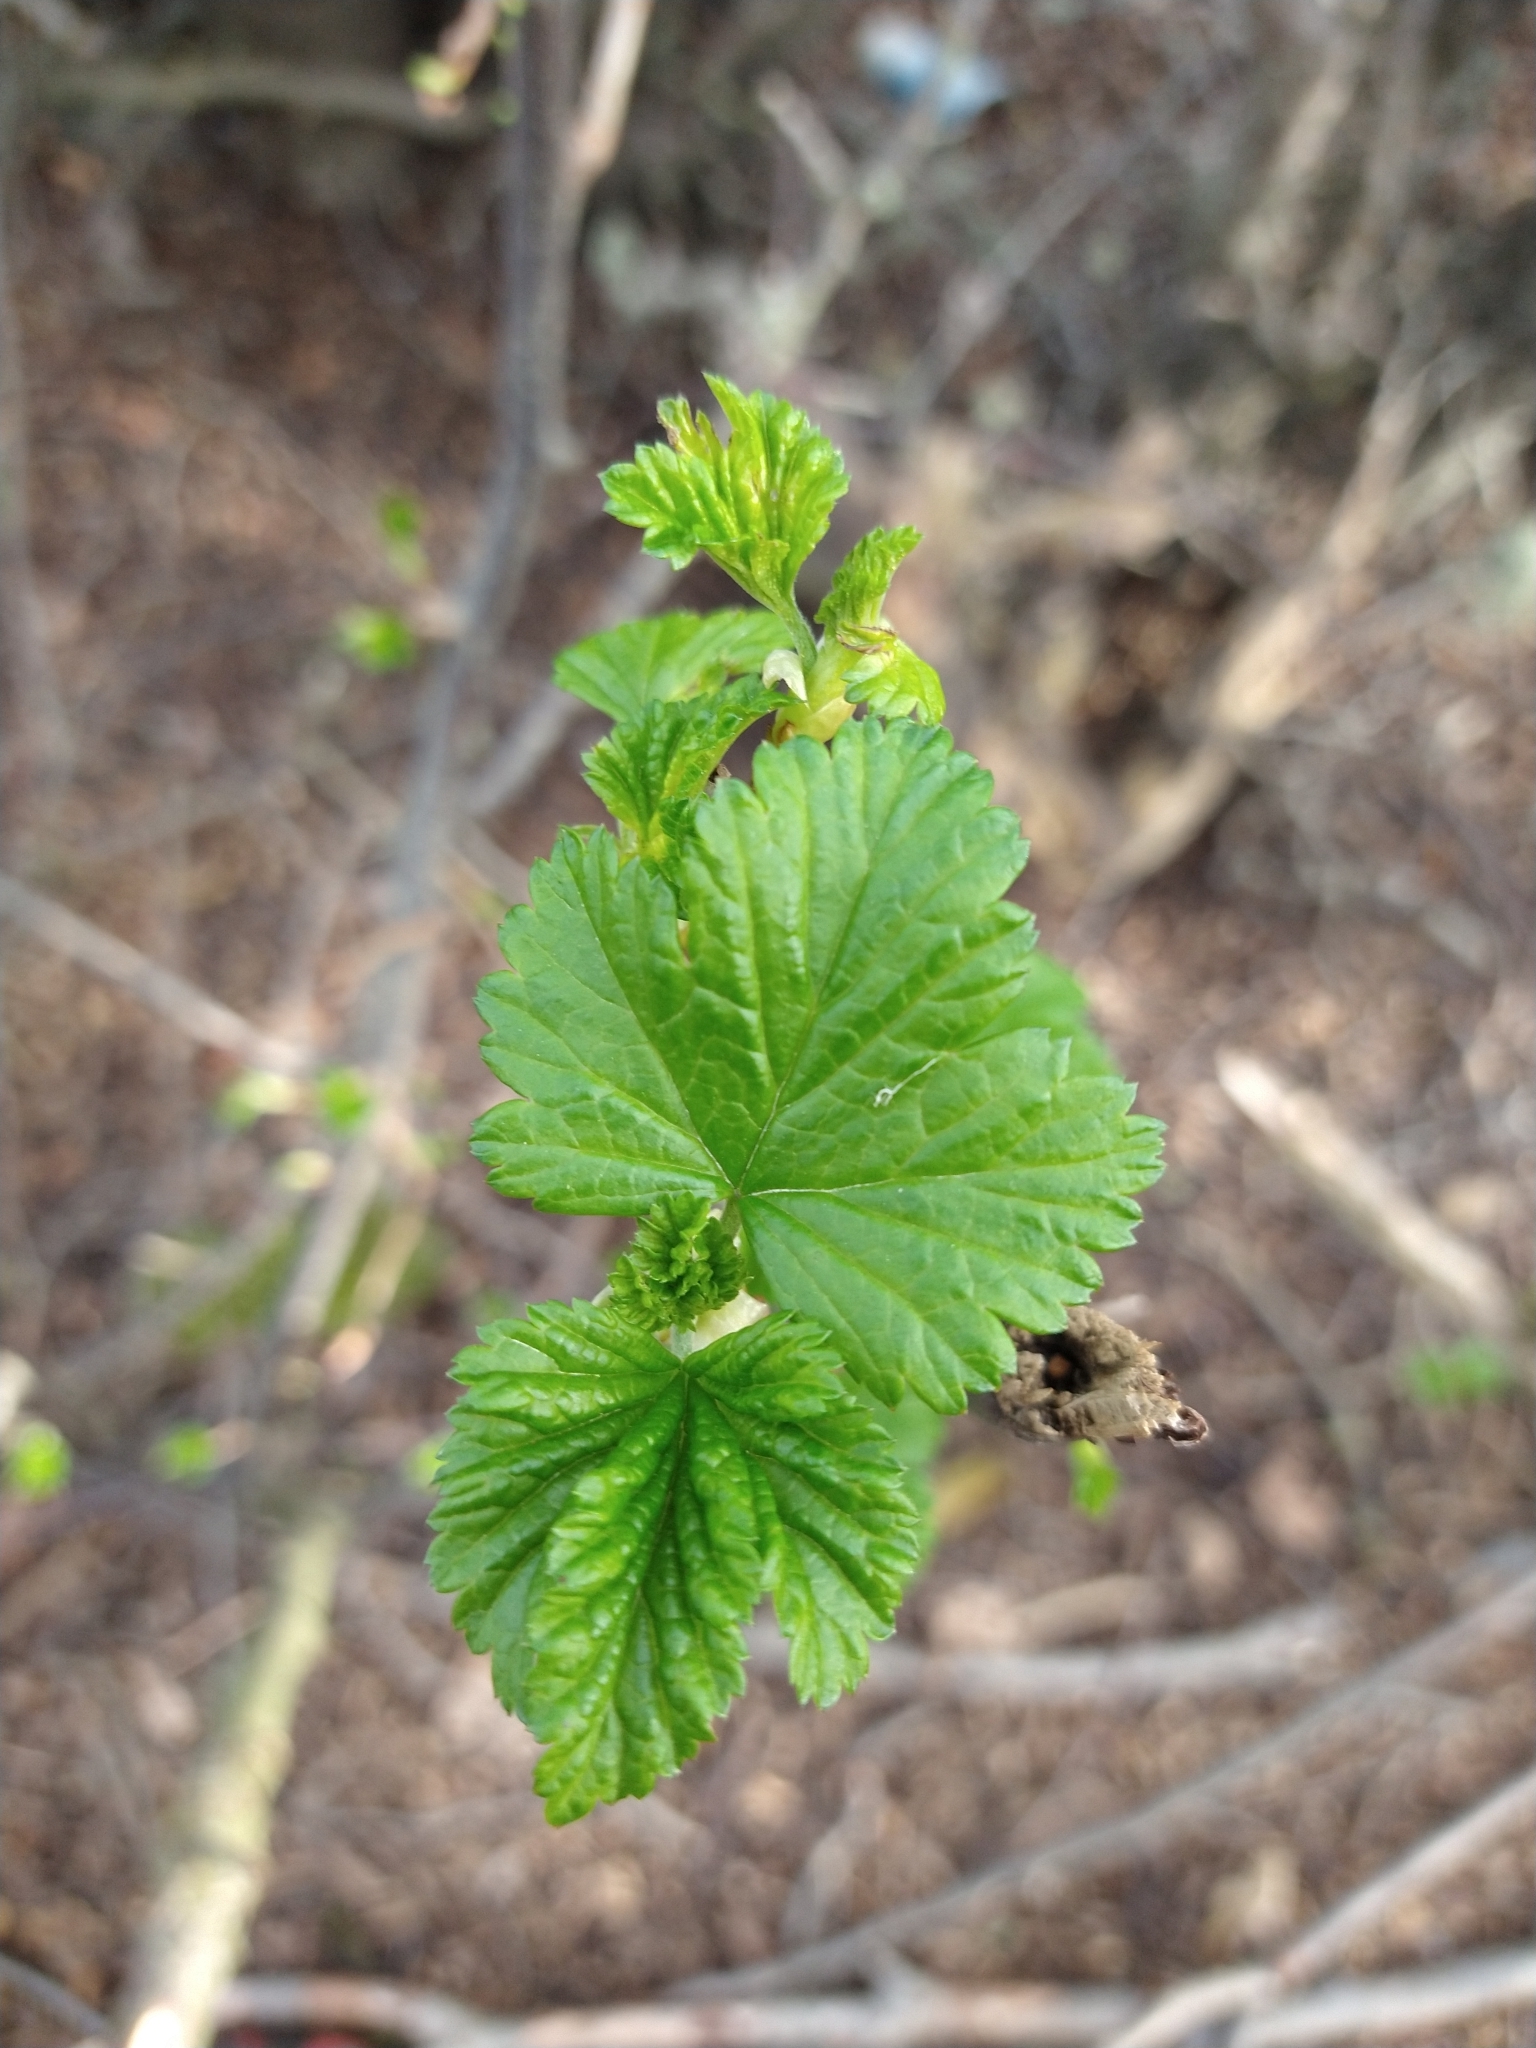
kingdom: Plantae
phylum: Tracheophyta
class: Magnoliopsida
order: Saxifragales
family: Grossulariaceae
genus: Ribes
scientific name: Ribes magellanicum
